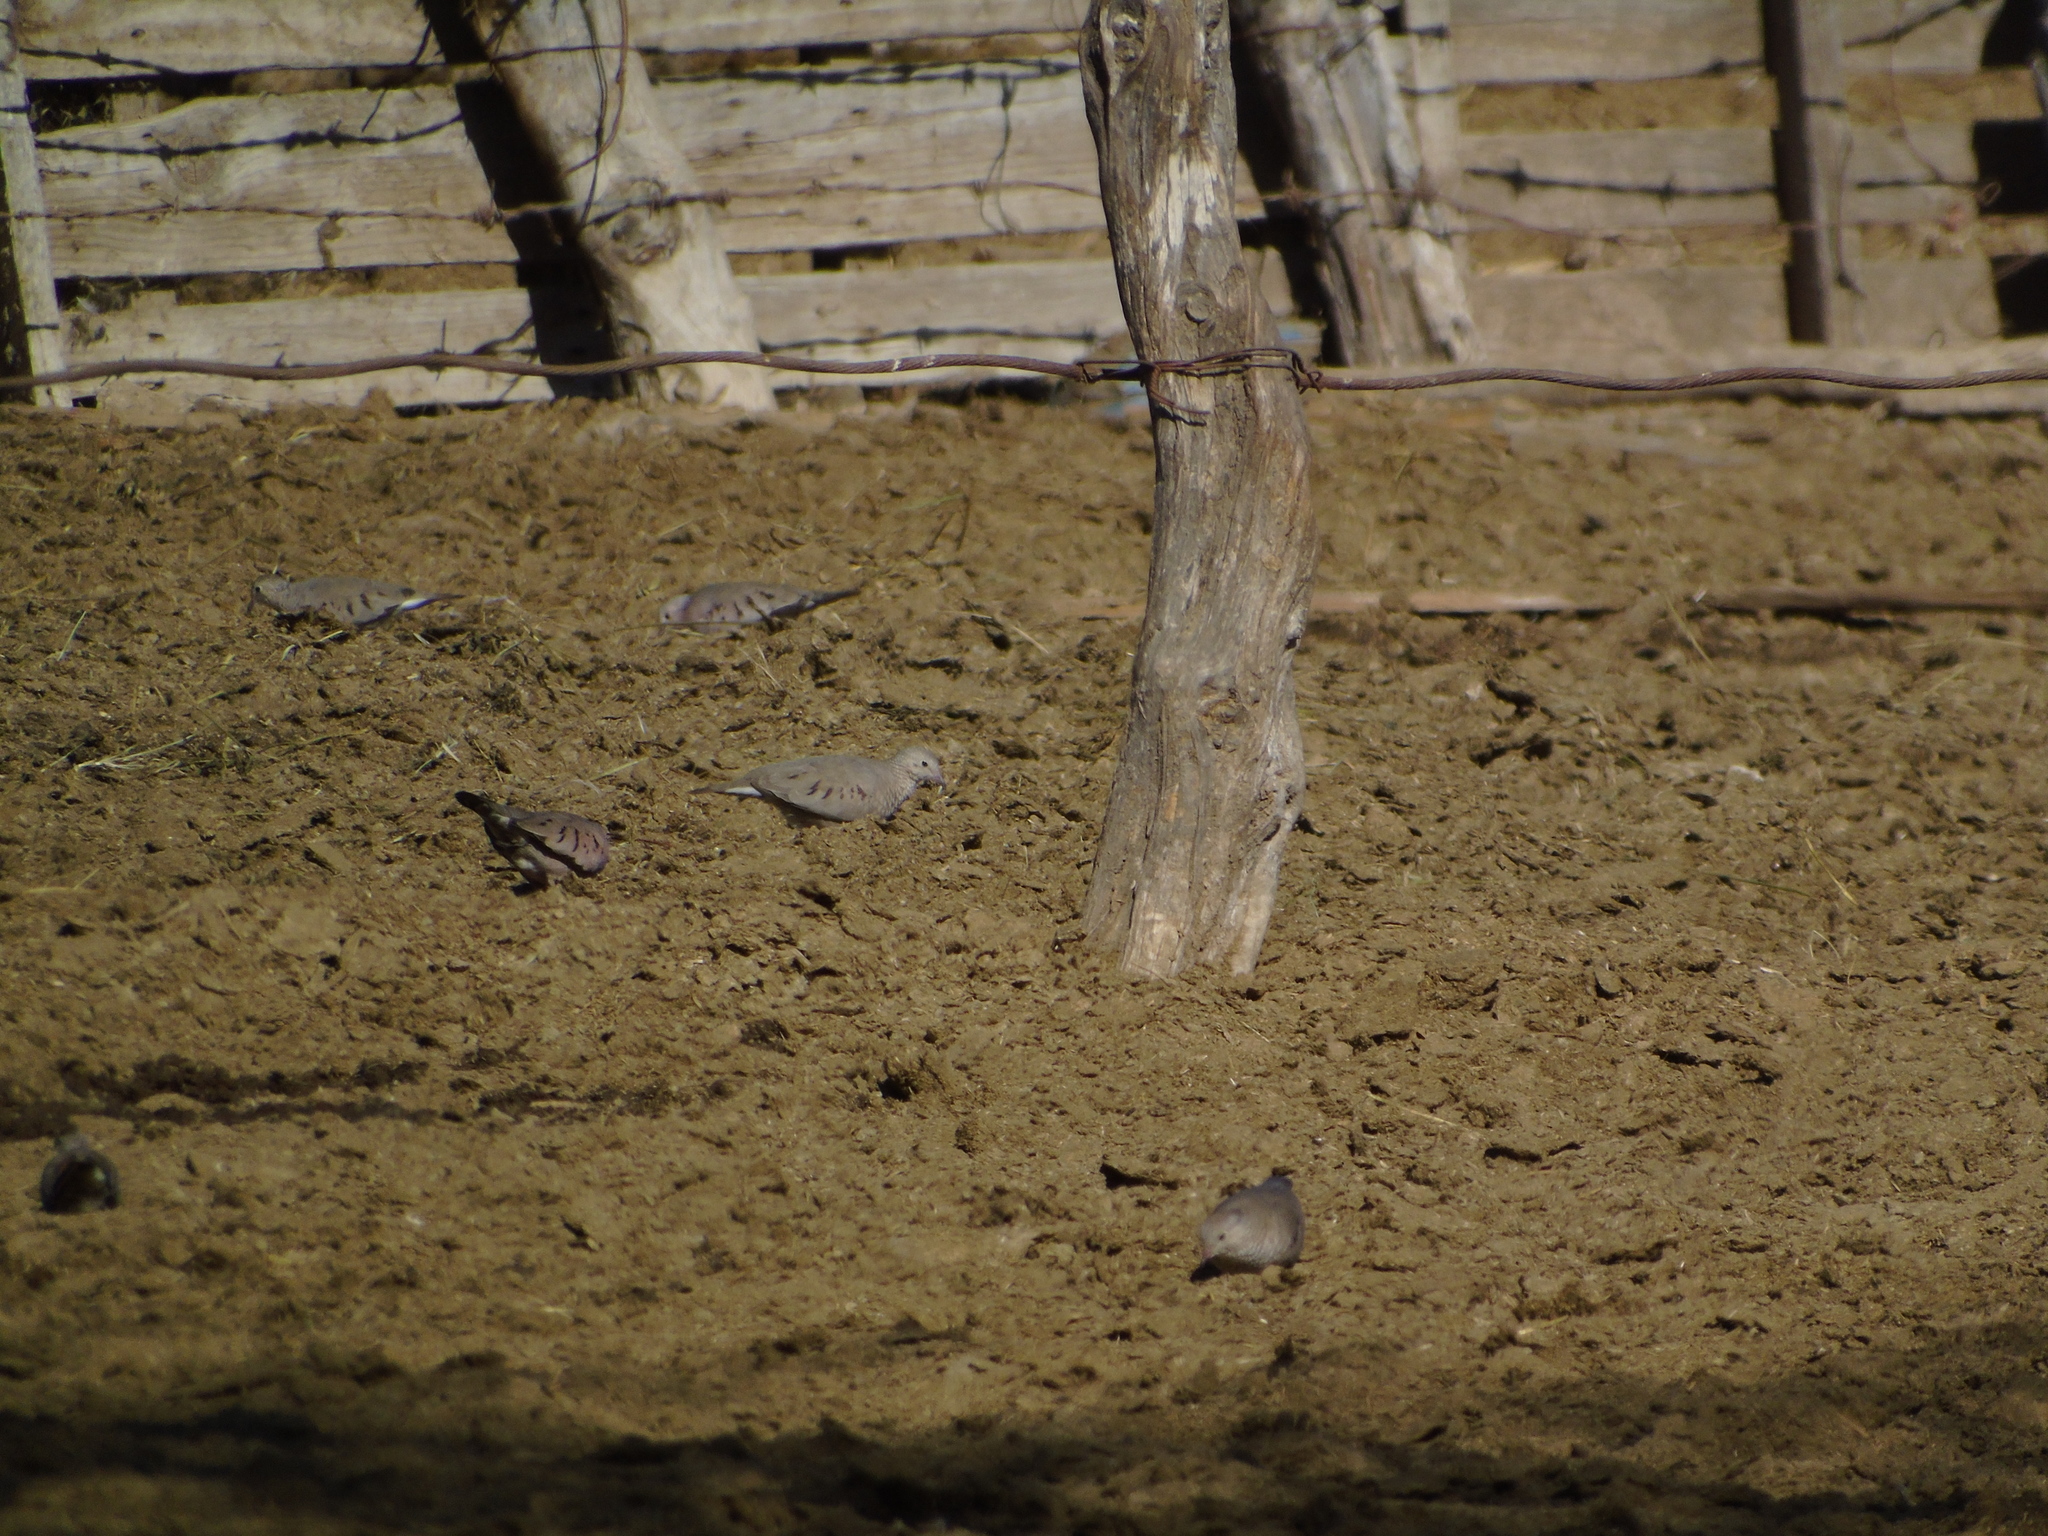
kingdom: Animalia
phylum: Chordata
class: Aves
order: Columbiformes
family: Columbidae
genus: Columbina
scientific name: Columbina passerina
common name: Common ground-dove
